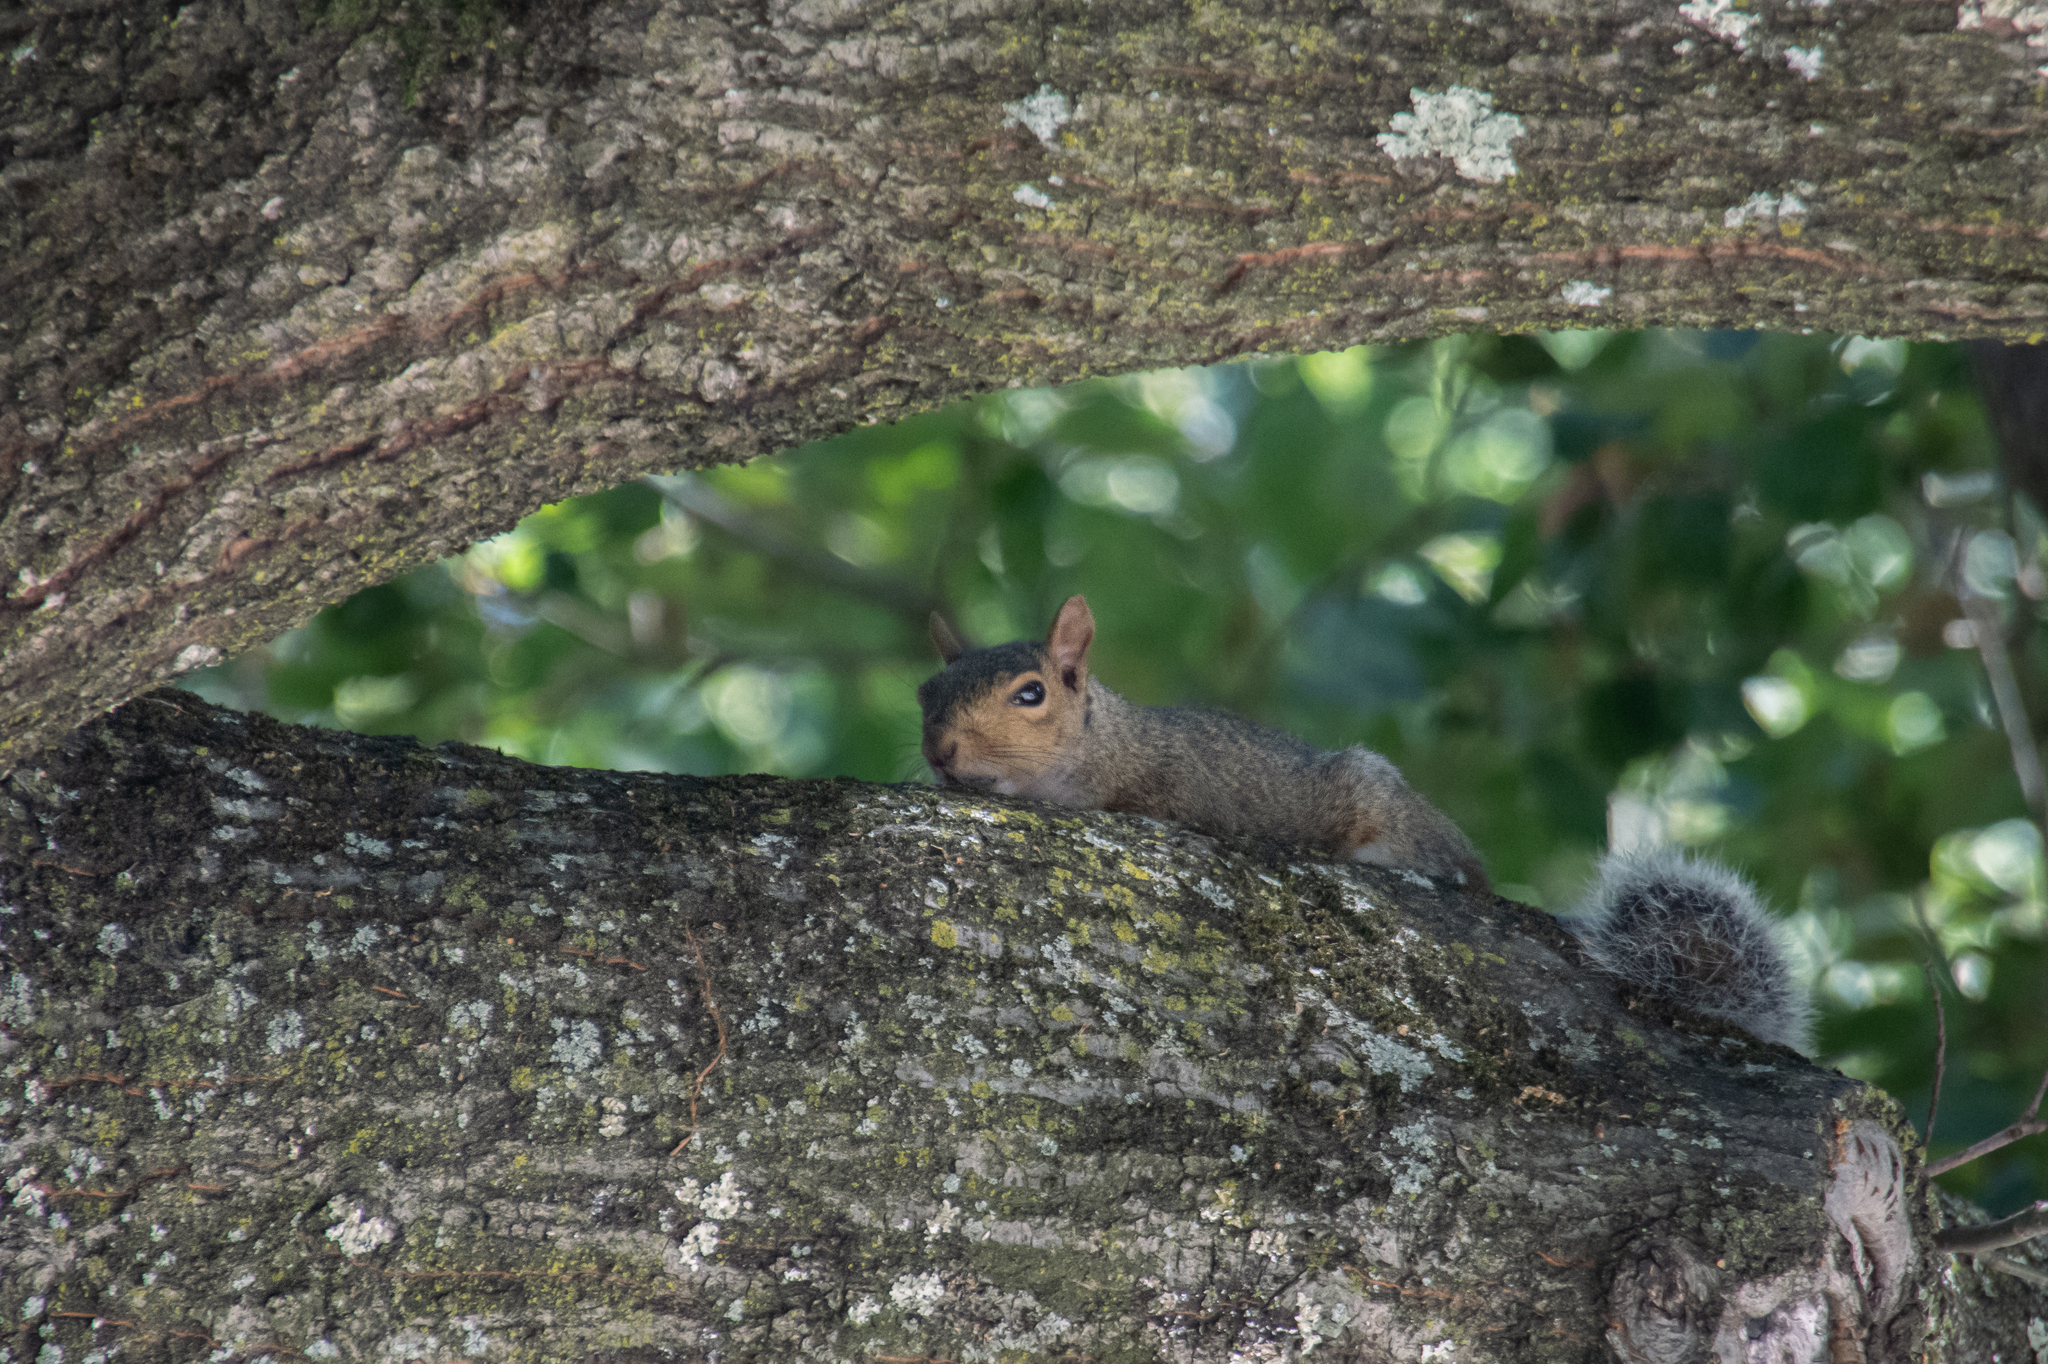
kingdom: Animalia
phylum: Chordata
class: Mammalia
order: Rodentia
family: Sciuridae
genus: Sciurus
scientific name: Sciurus carolinensis
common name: Eastern gray squirrel
